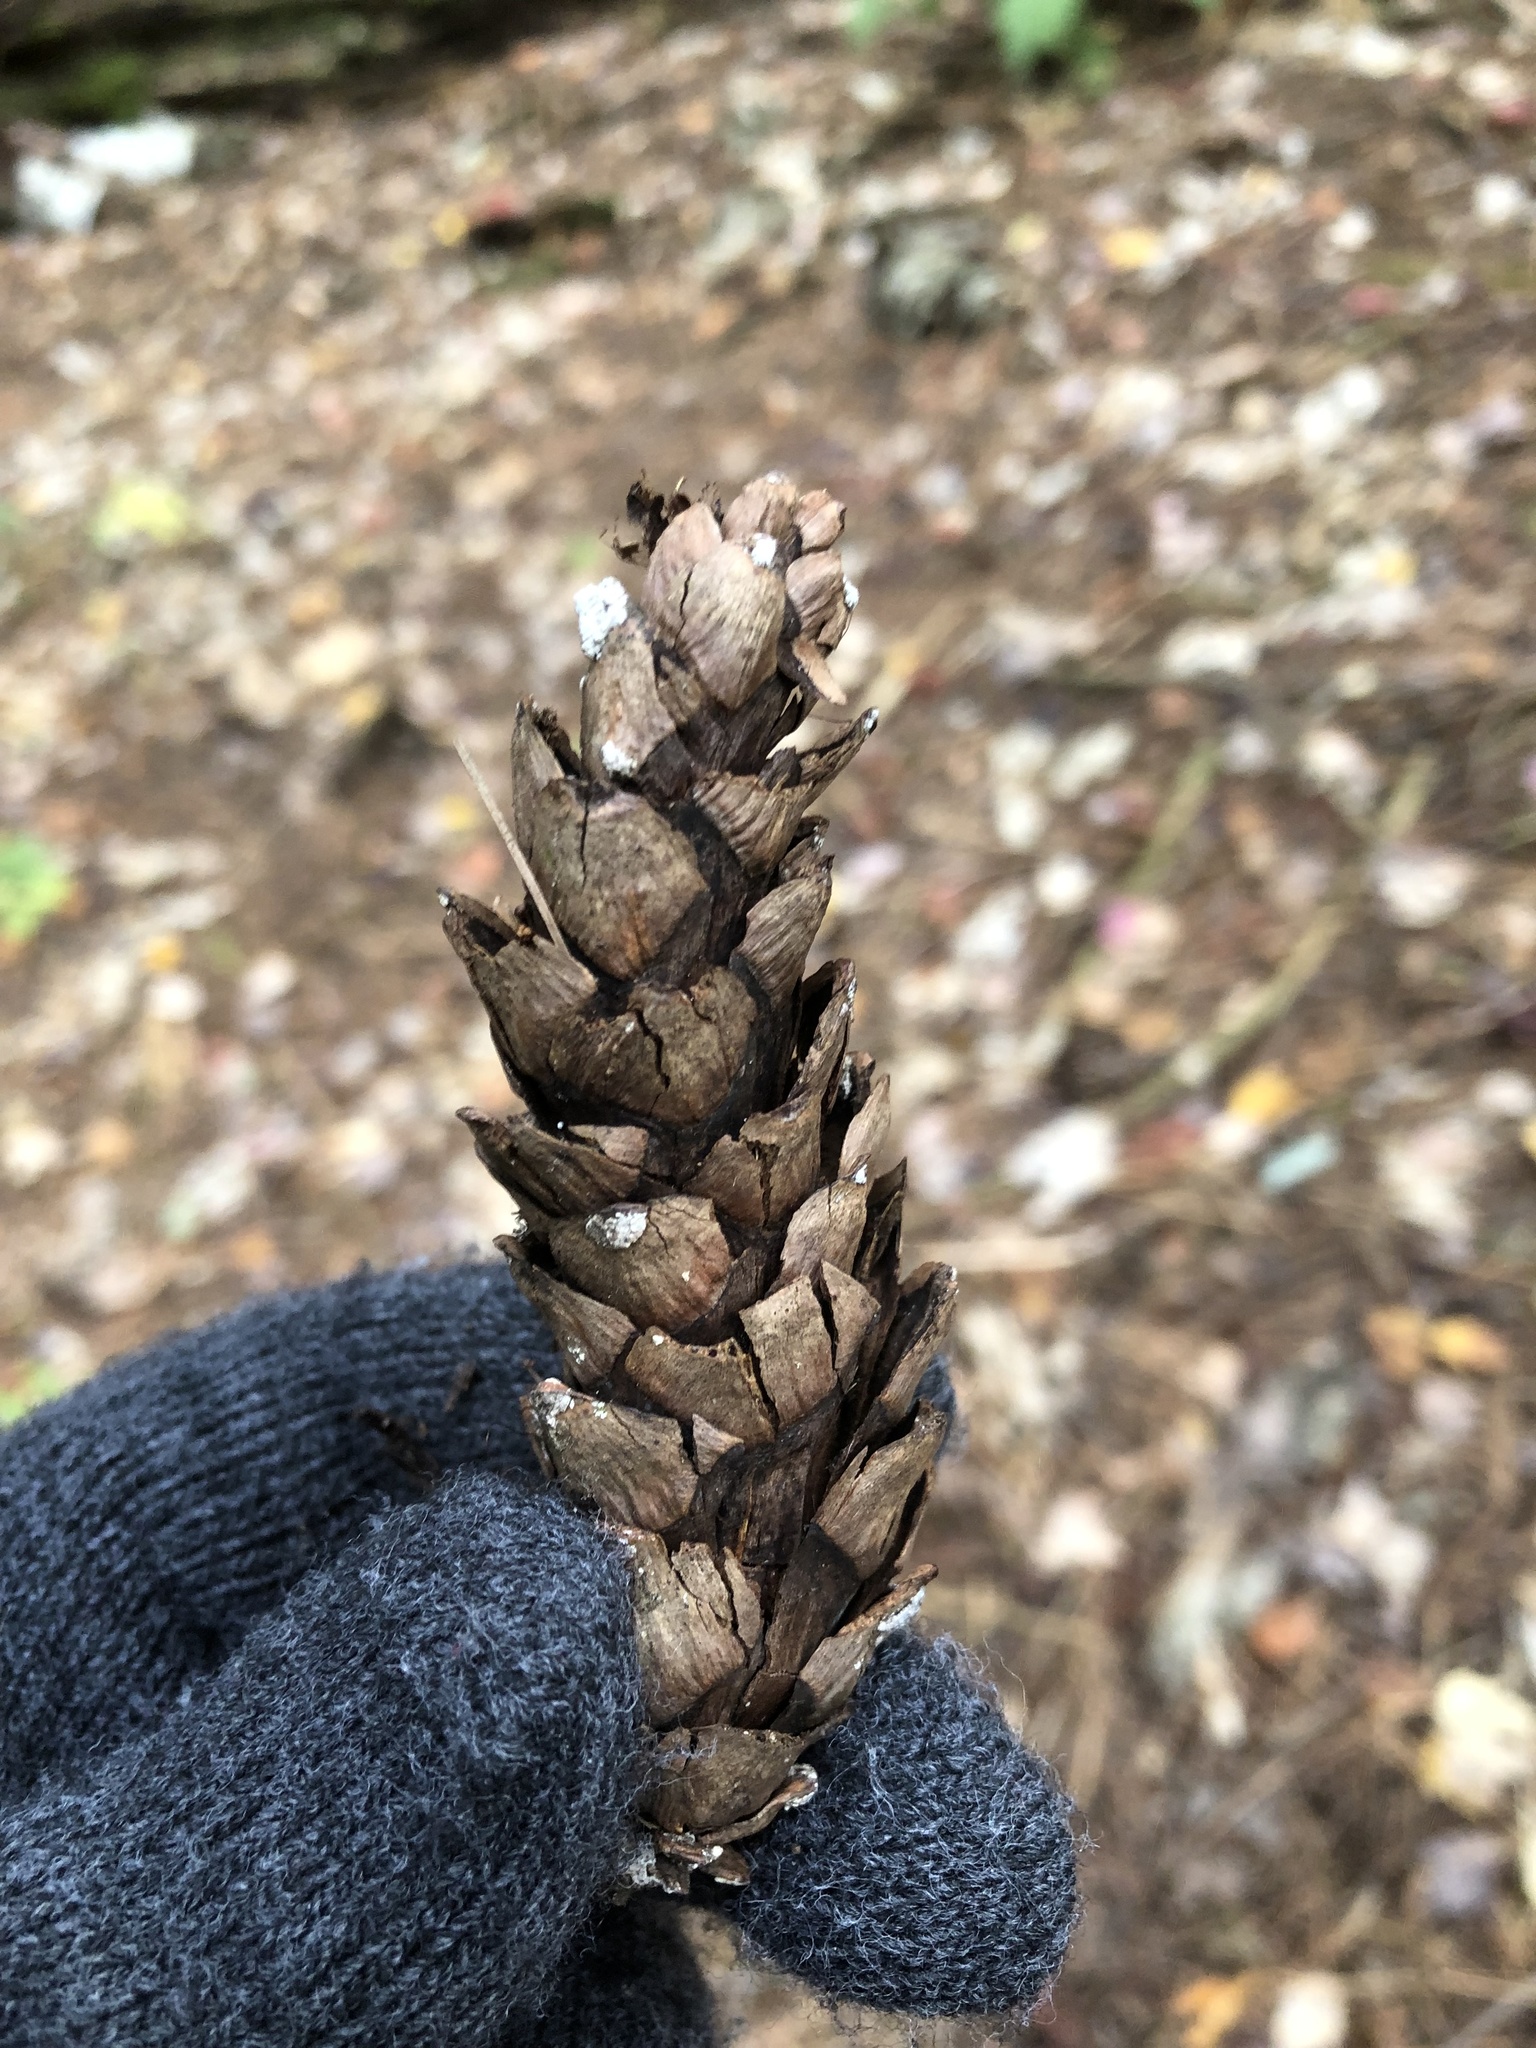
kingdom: Plantae
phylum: Tracheophyta
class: Pinopsida
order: Pinales
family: Pinaceae
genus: Pinus
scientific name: Pinus strobus
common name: Weymouth pine
